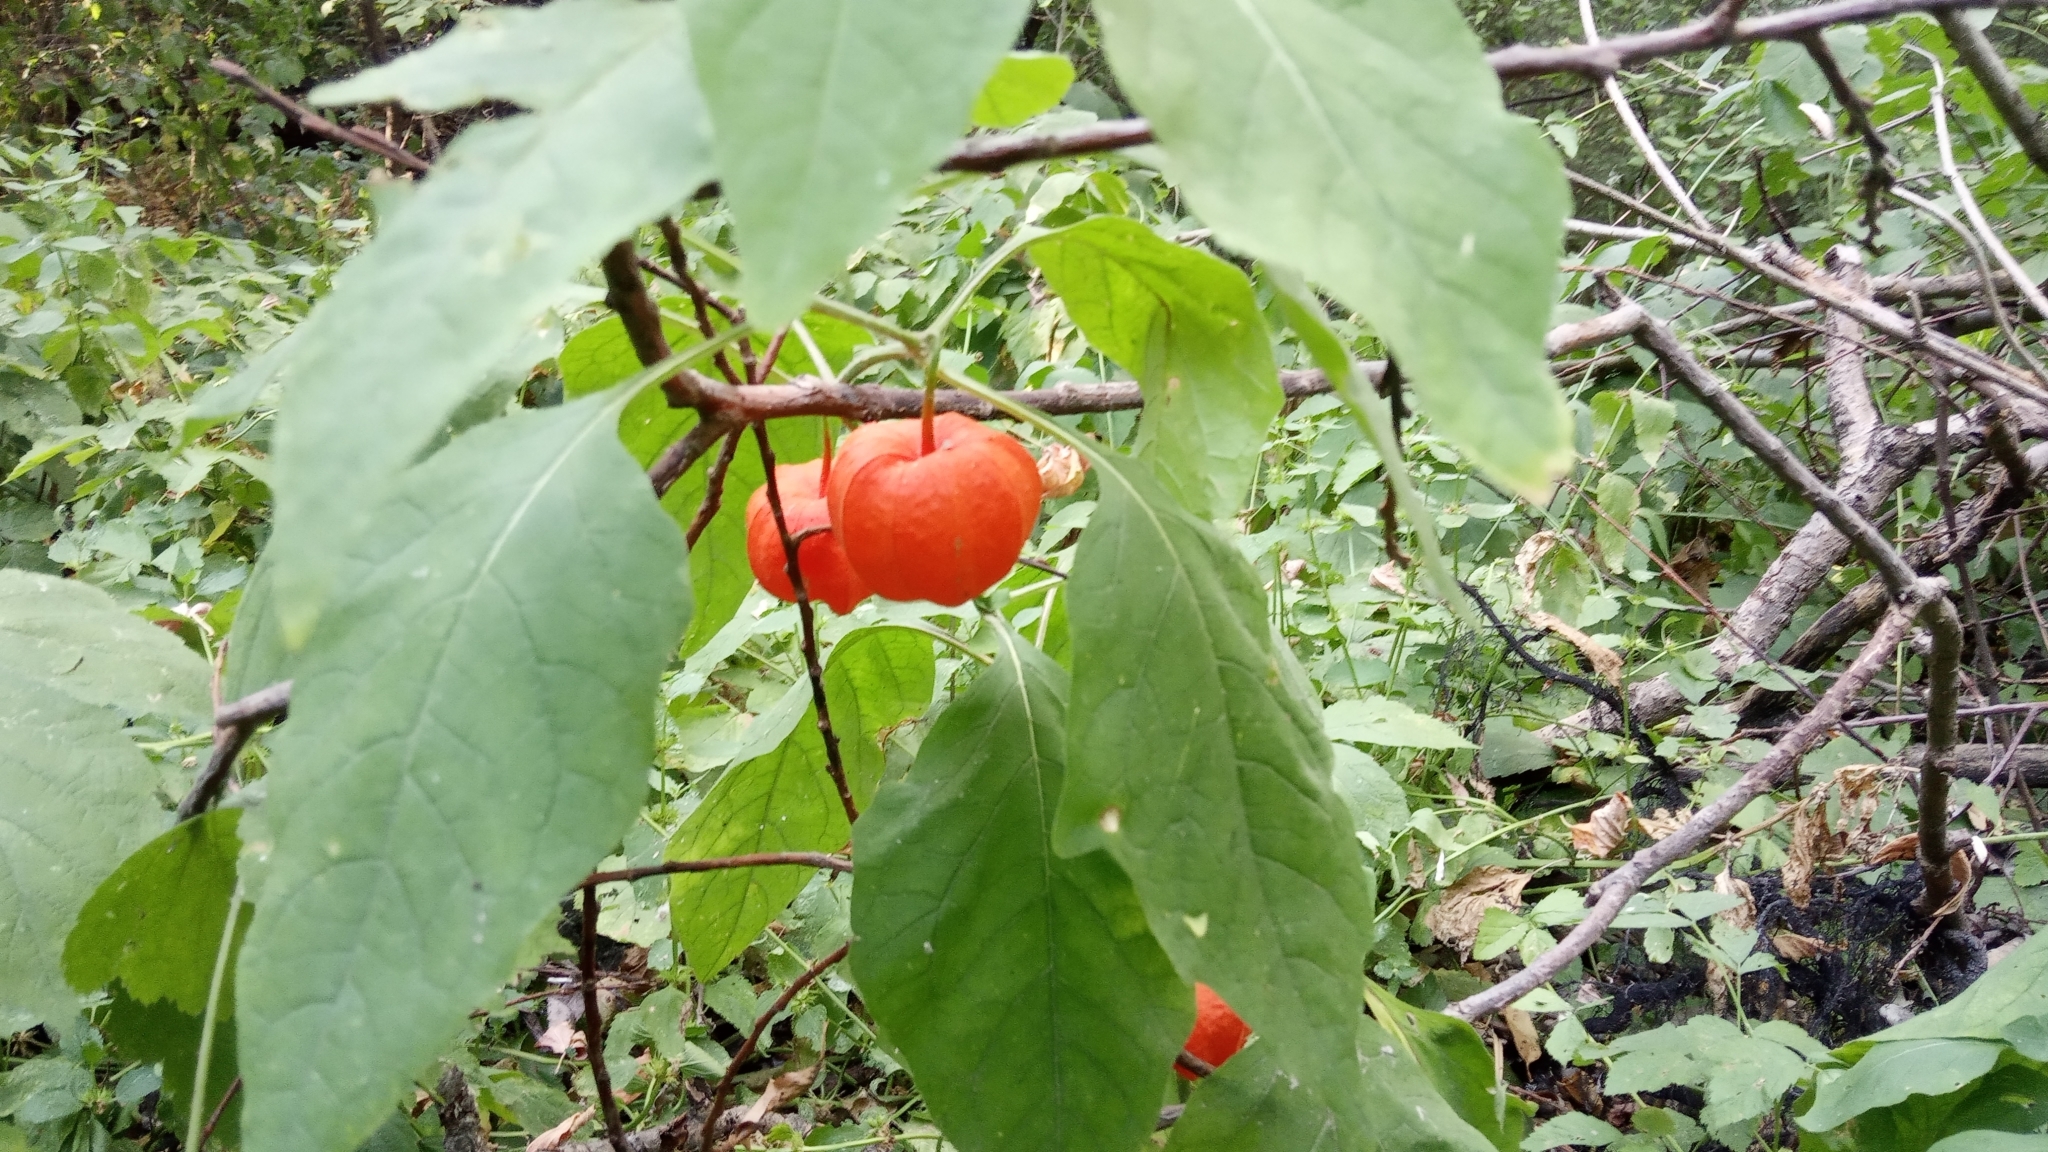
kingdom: Plantae
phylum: Tracheophyta
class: Magnoliopsida
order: Solanales
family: Solanaceae
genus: Alkekengi
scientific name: Alkekengi officinarum
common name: Japanese-lantern
